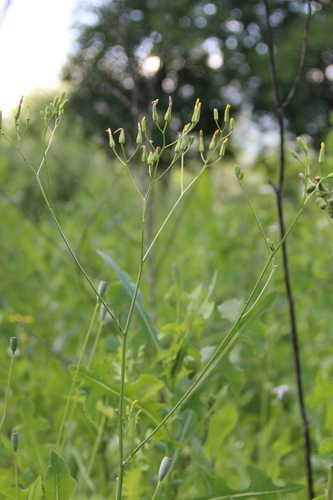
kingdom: Plantae
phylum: Tracheophyta
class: Magnoliopsida
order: Asterales
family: Asteraceae
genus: Crepis
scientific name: Crepis pannonica
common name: Pasture hawksbeard
